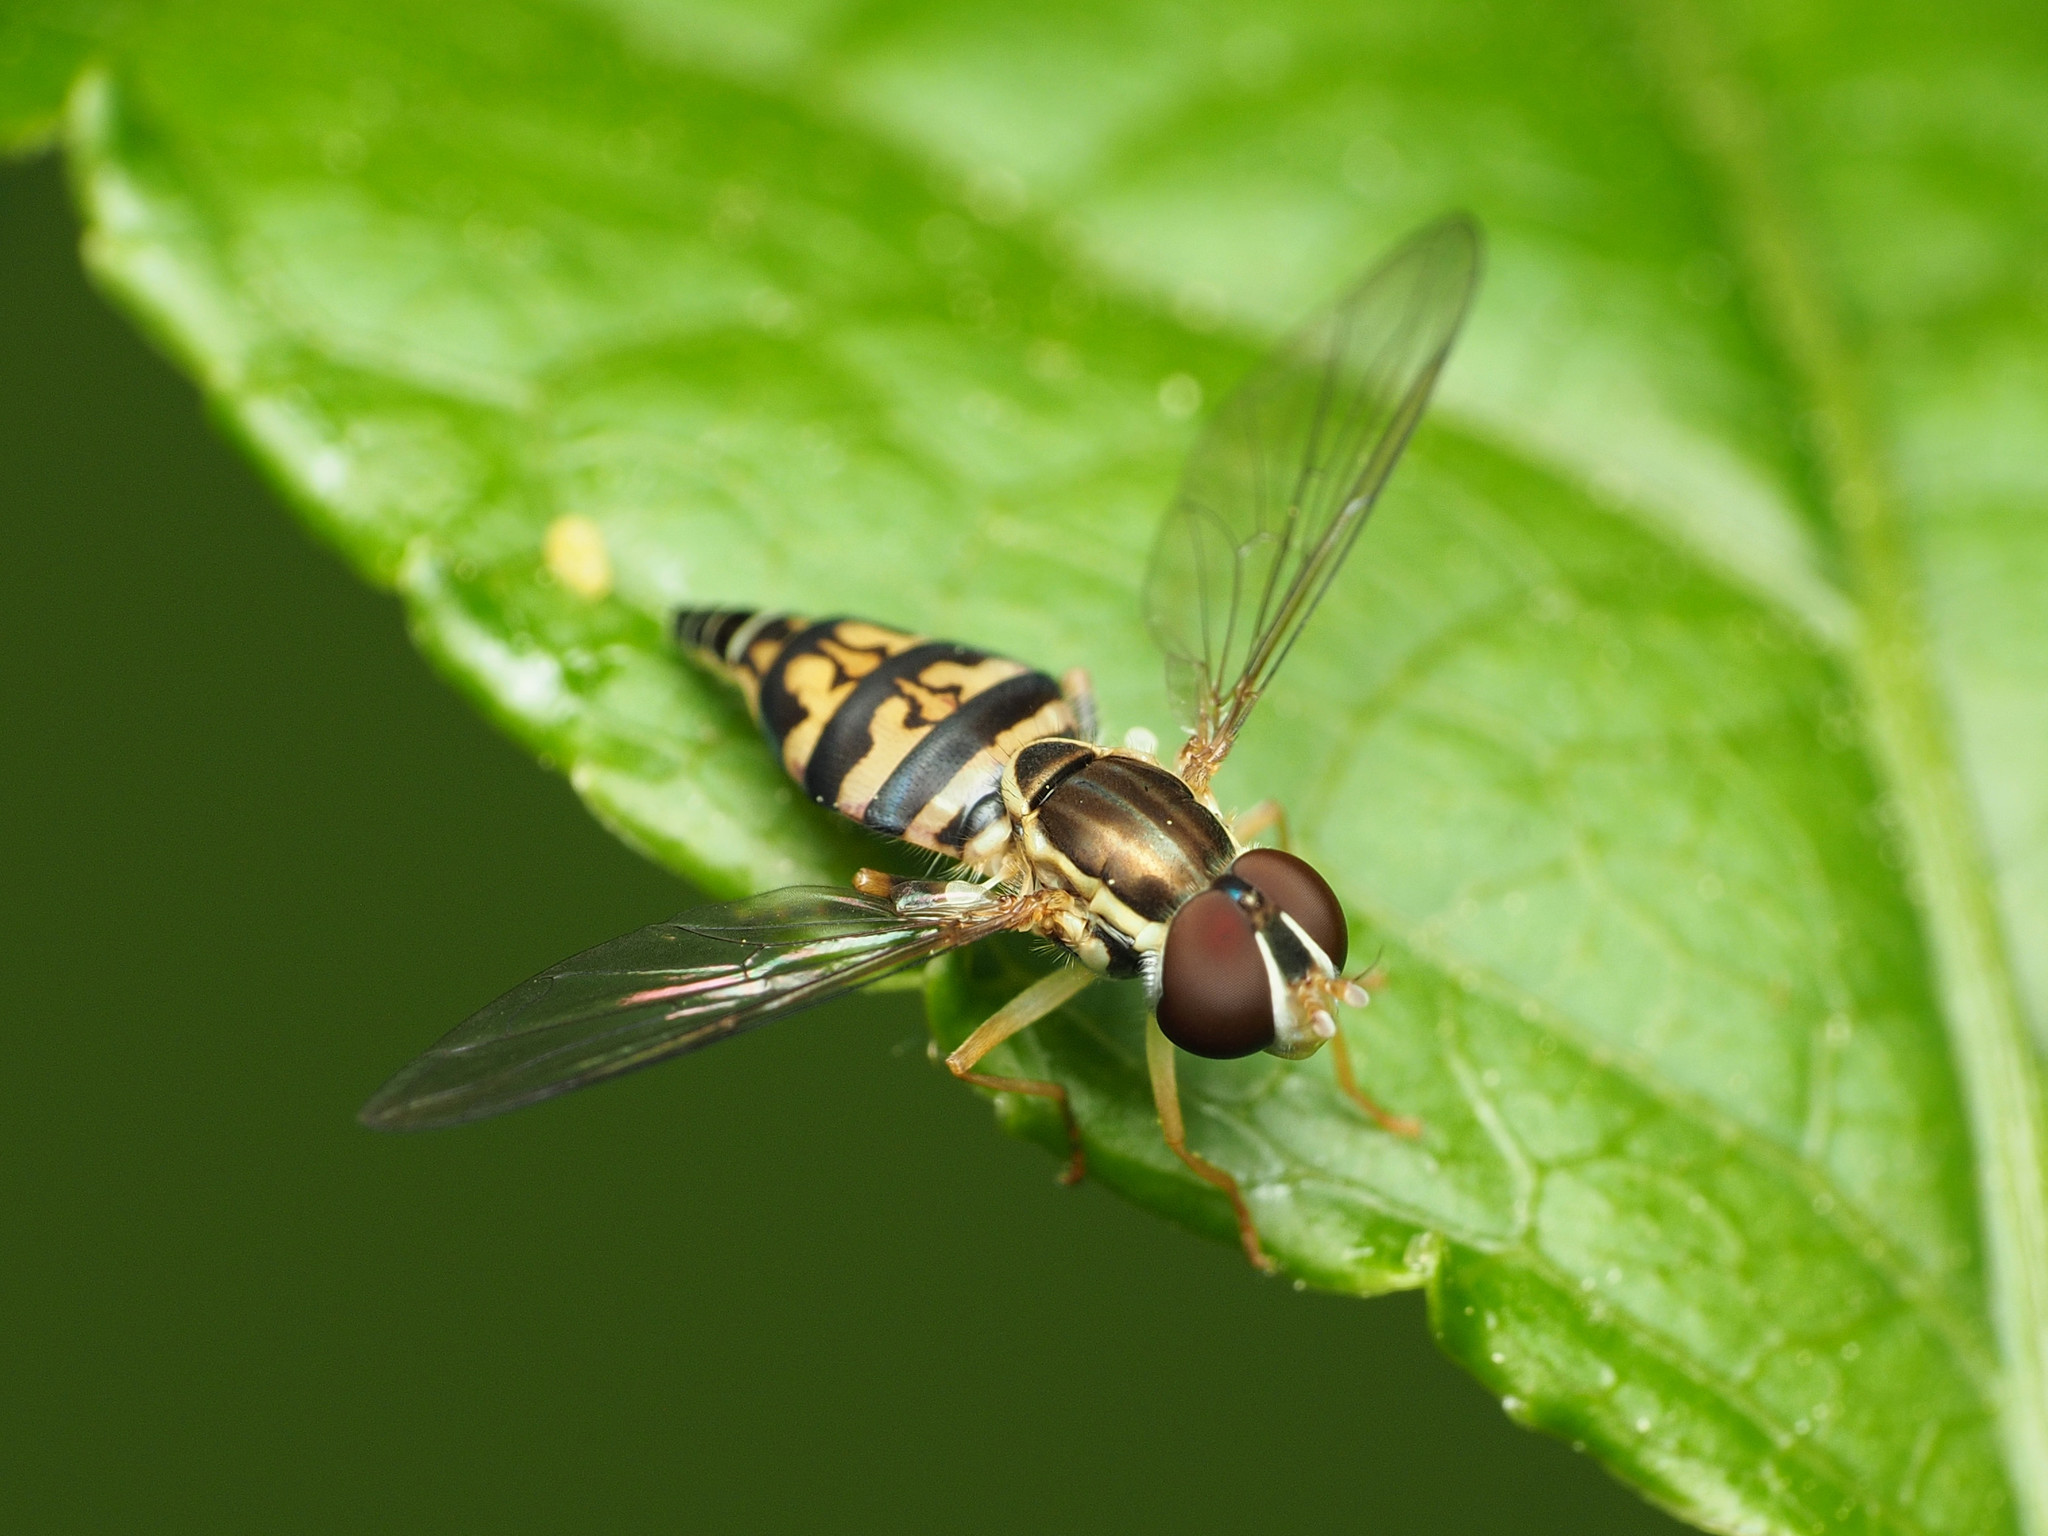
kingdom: Animalia
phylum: Arthropoda
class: Insecta
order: Diptera
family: Syrphidae
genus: Toxomerus
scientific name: Toxomerus geminatus
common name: Eastern calligrapher
